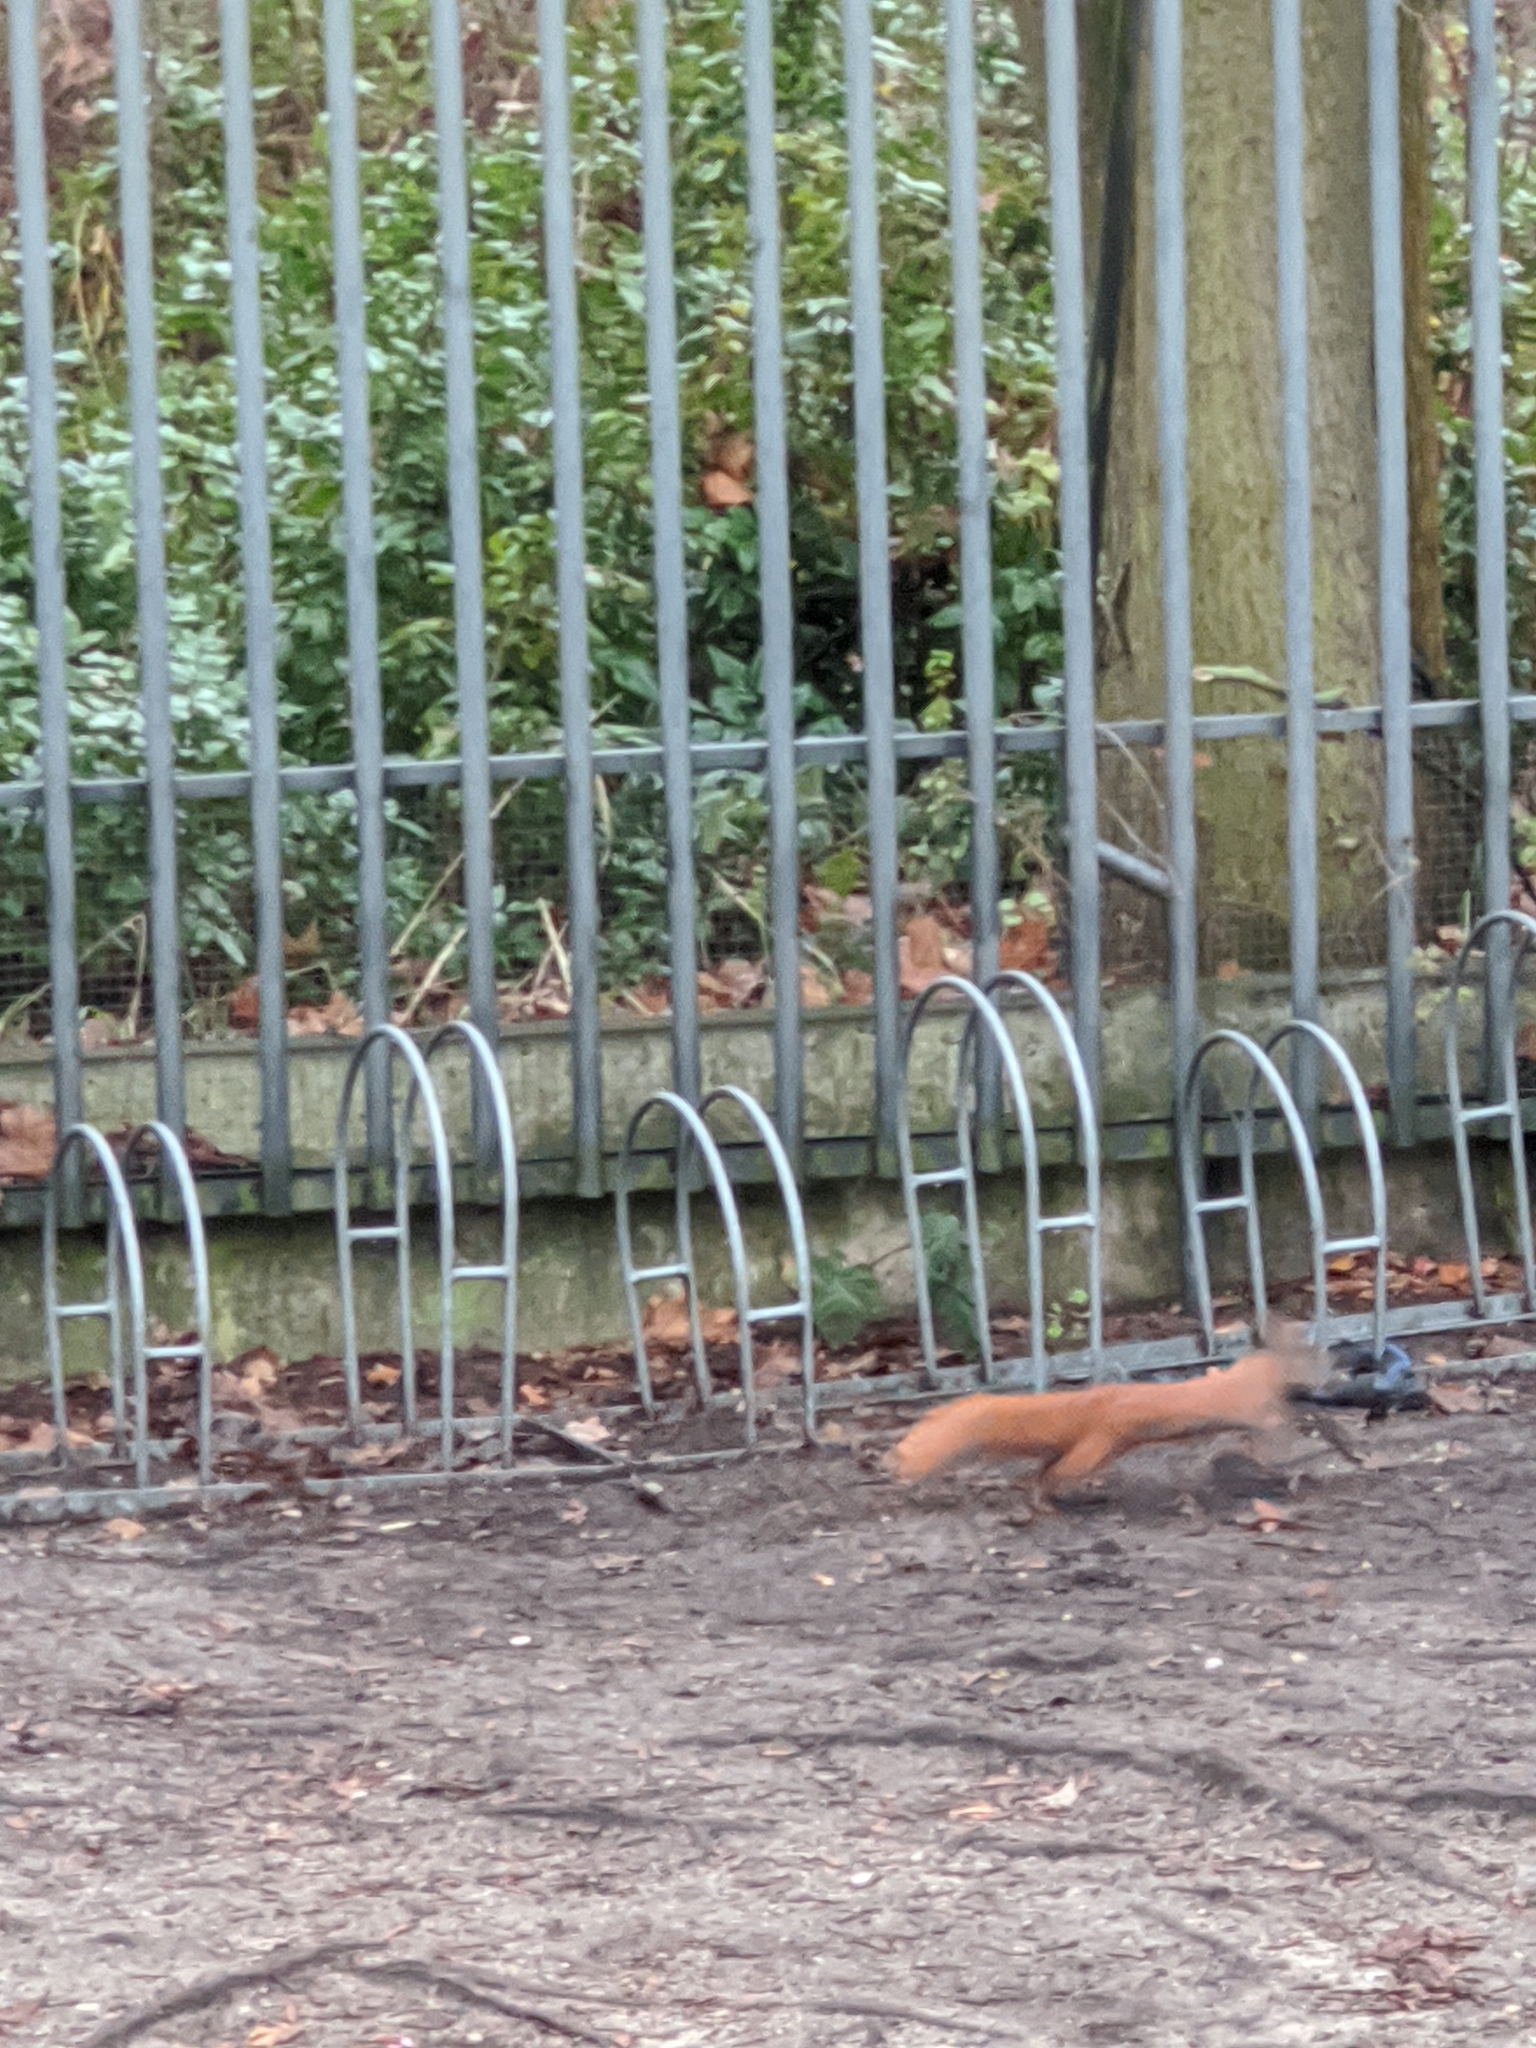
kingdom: Animalia
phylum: Chordata
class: Mammalia
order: Rodentia
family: Sciuridae
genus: Sciurus
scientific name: Sciurus vulgaris
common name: Eurasian red squirrel
